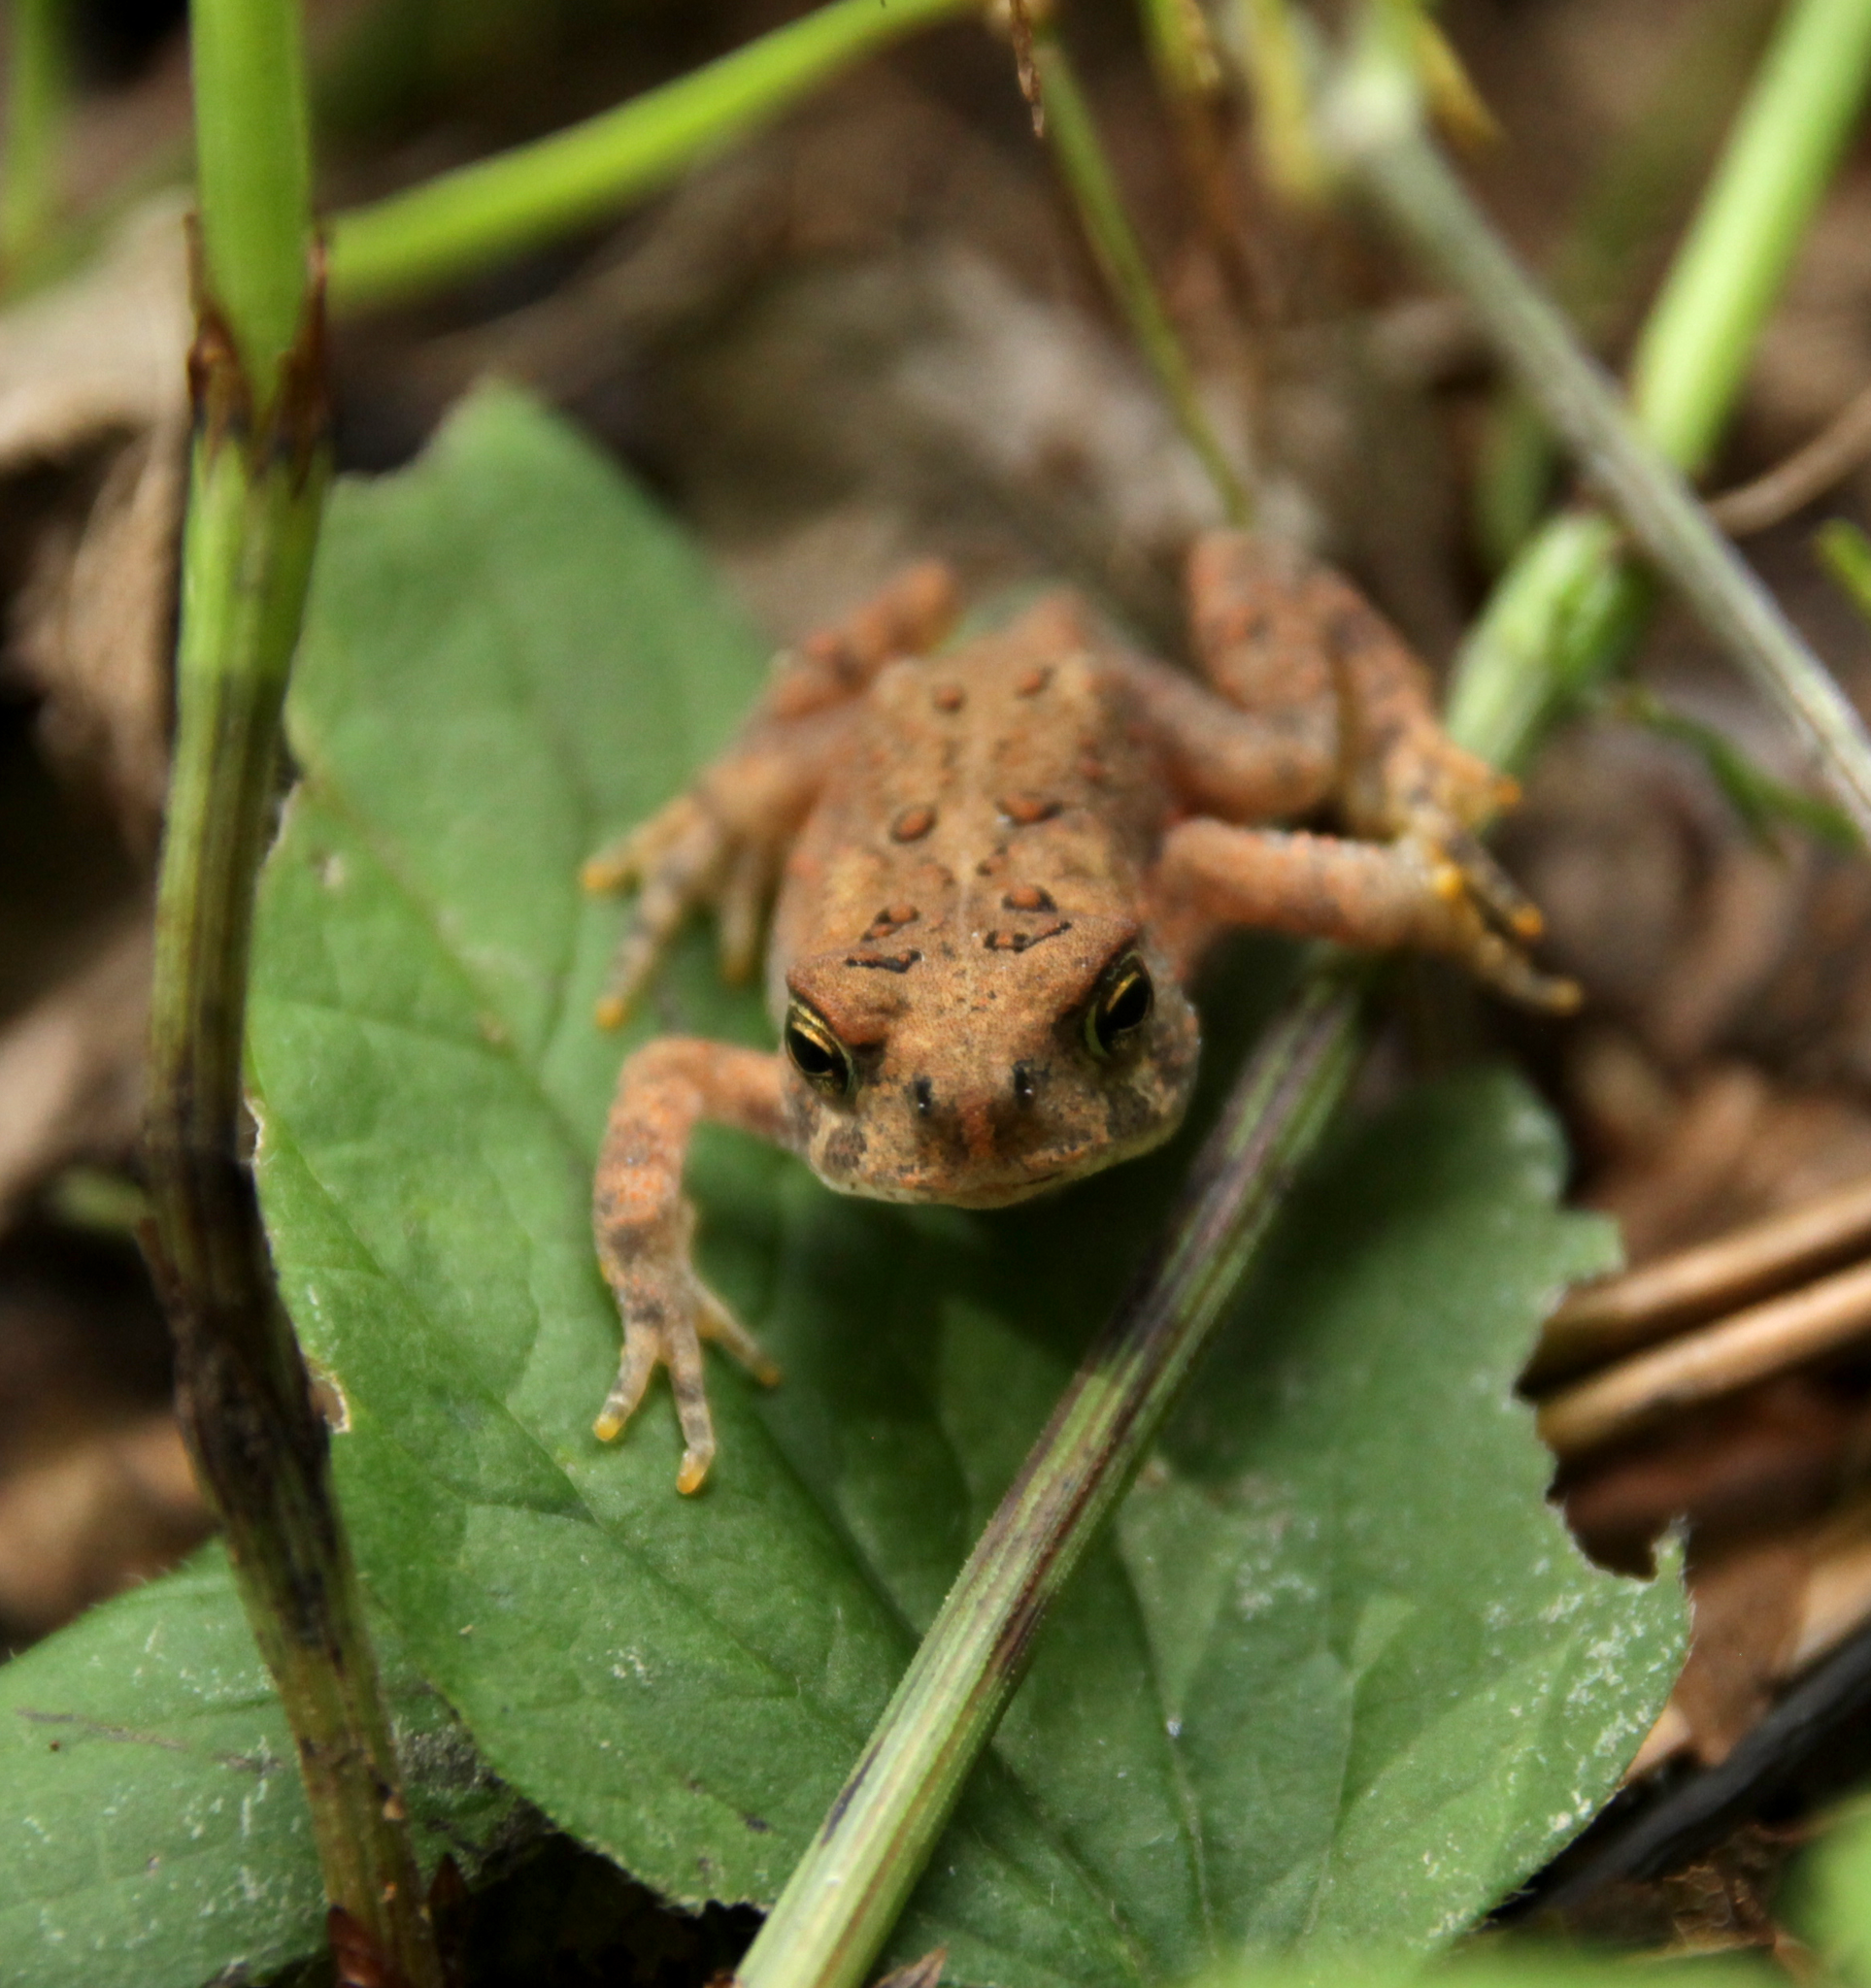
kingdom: Animalia
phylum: Chordata
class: Amphibia
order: Anura
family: Bufonidae
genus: Anaxyrus
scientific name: Anaxyrus americanus
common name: American toad
